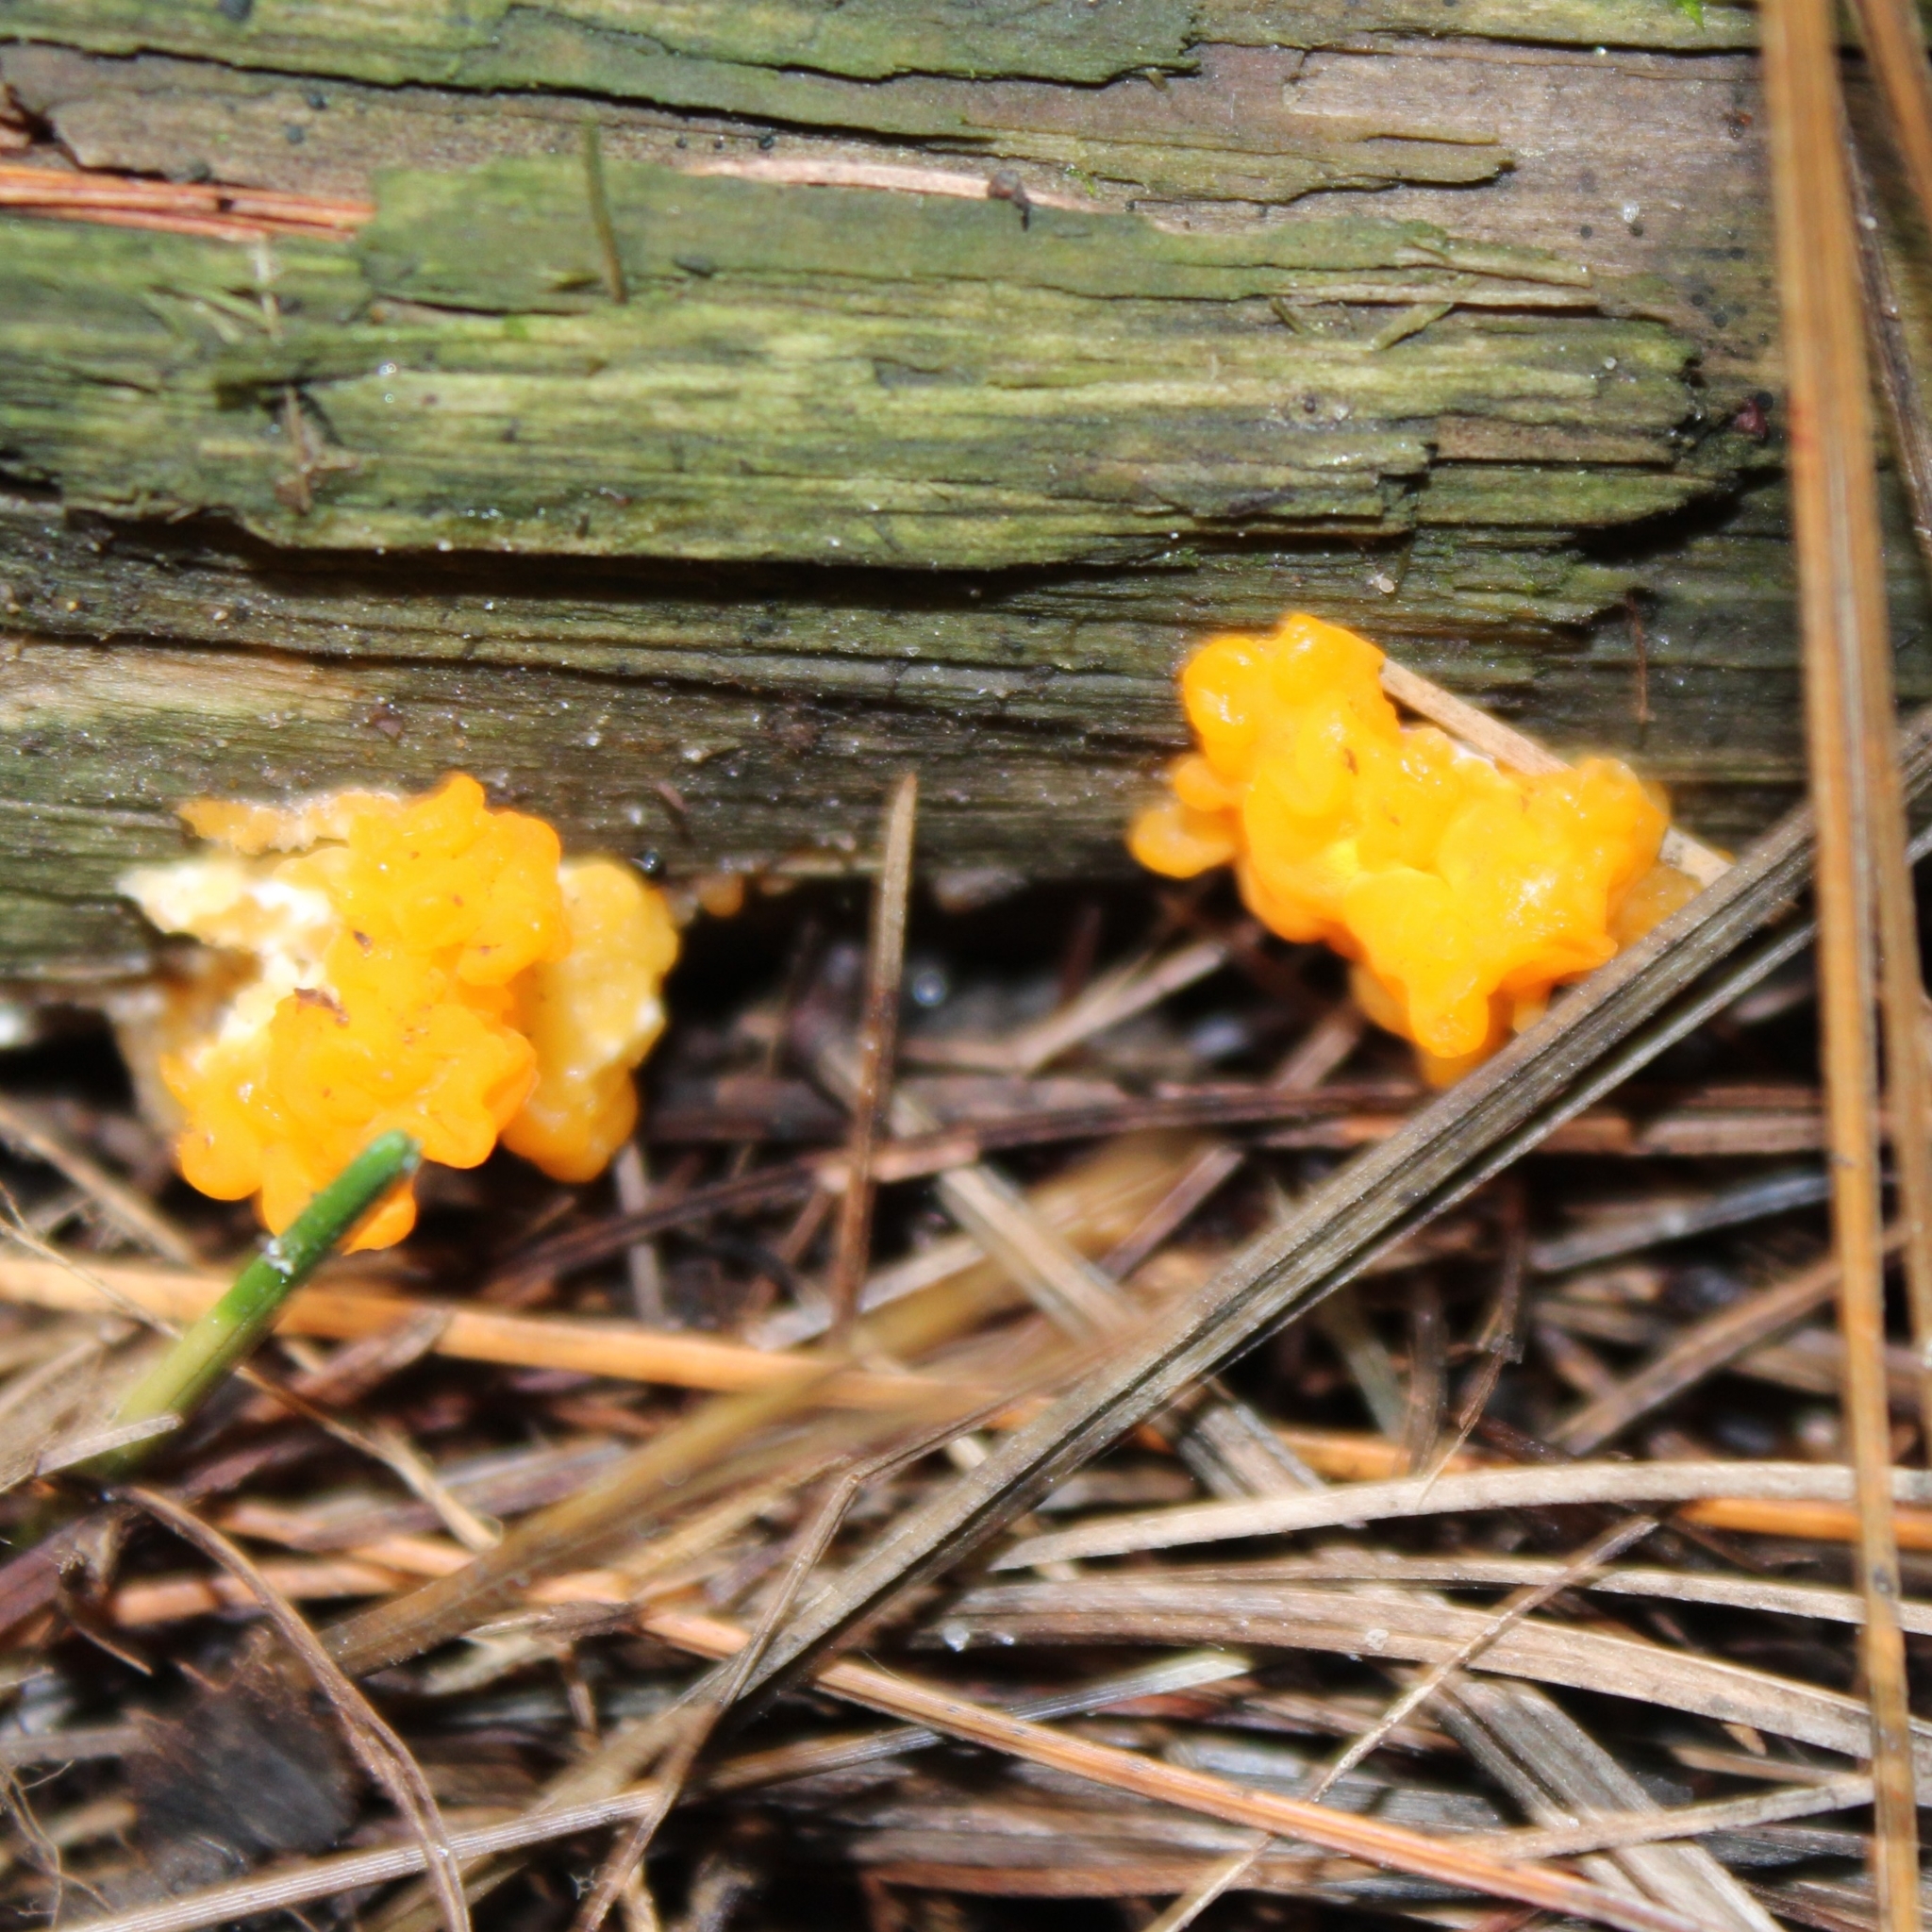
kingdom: Fungi
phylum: Basidiomycota
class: Dacrymycetes
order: Dacrymycetales
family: Dacrymycetaceae
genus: Dacrymyces
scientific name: Dacrymyces chrysospermus
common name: Orange jelly spot
